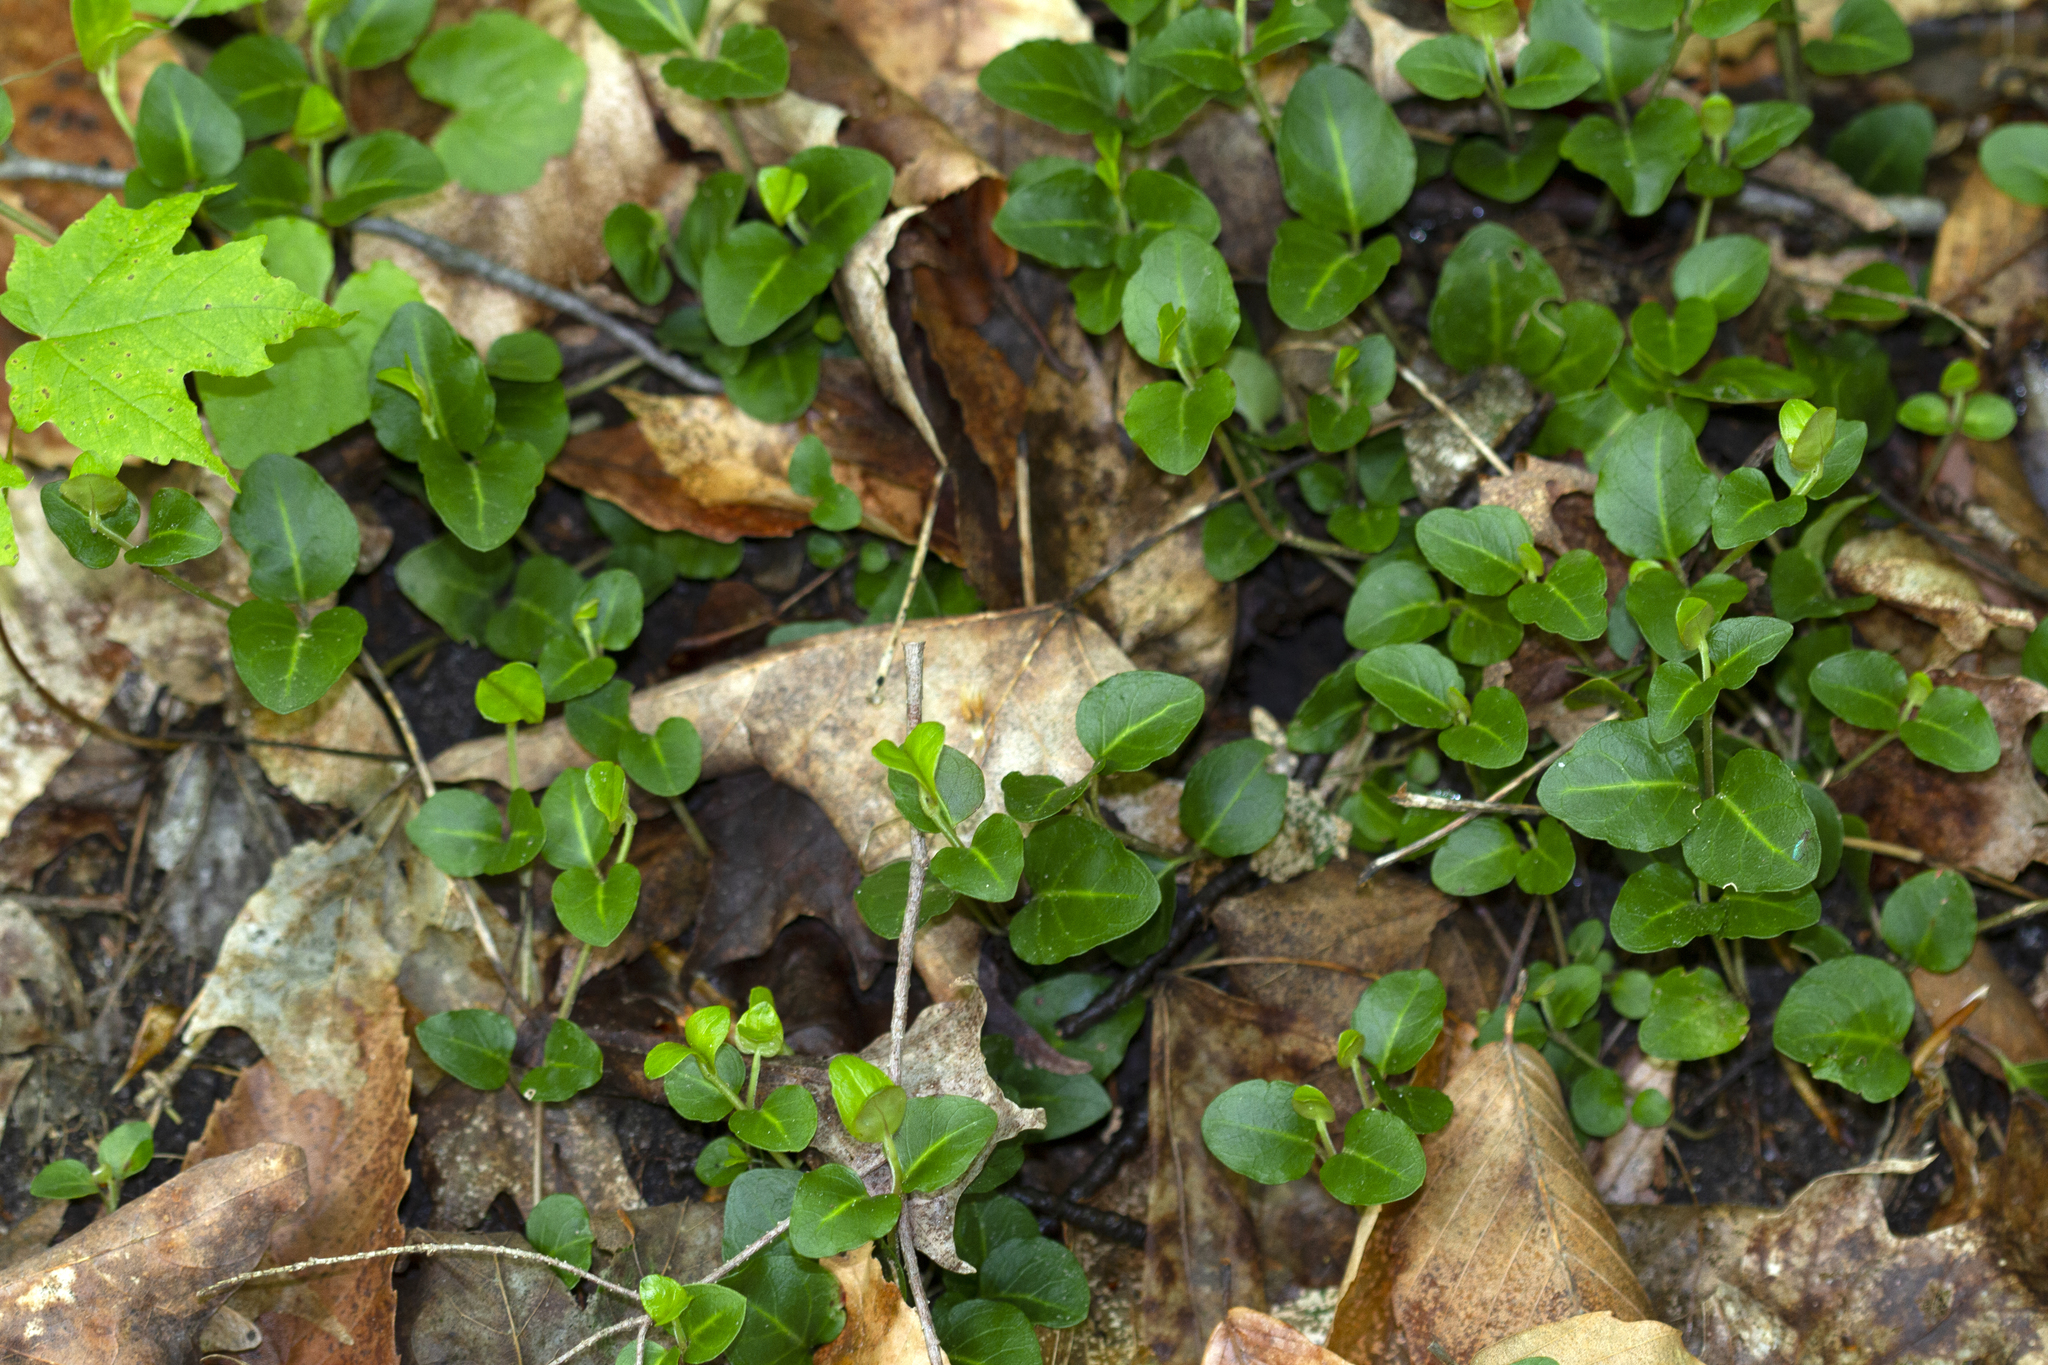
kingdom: Plantae
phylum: Tracheophyta
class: Magnoliopsida
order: Gentianales
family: Rubiaceae
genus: Mitchella
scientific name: Mitchella repens
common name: Partridge-berry
